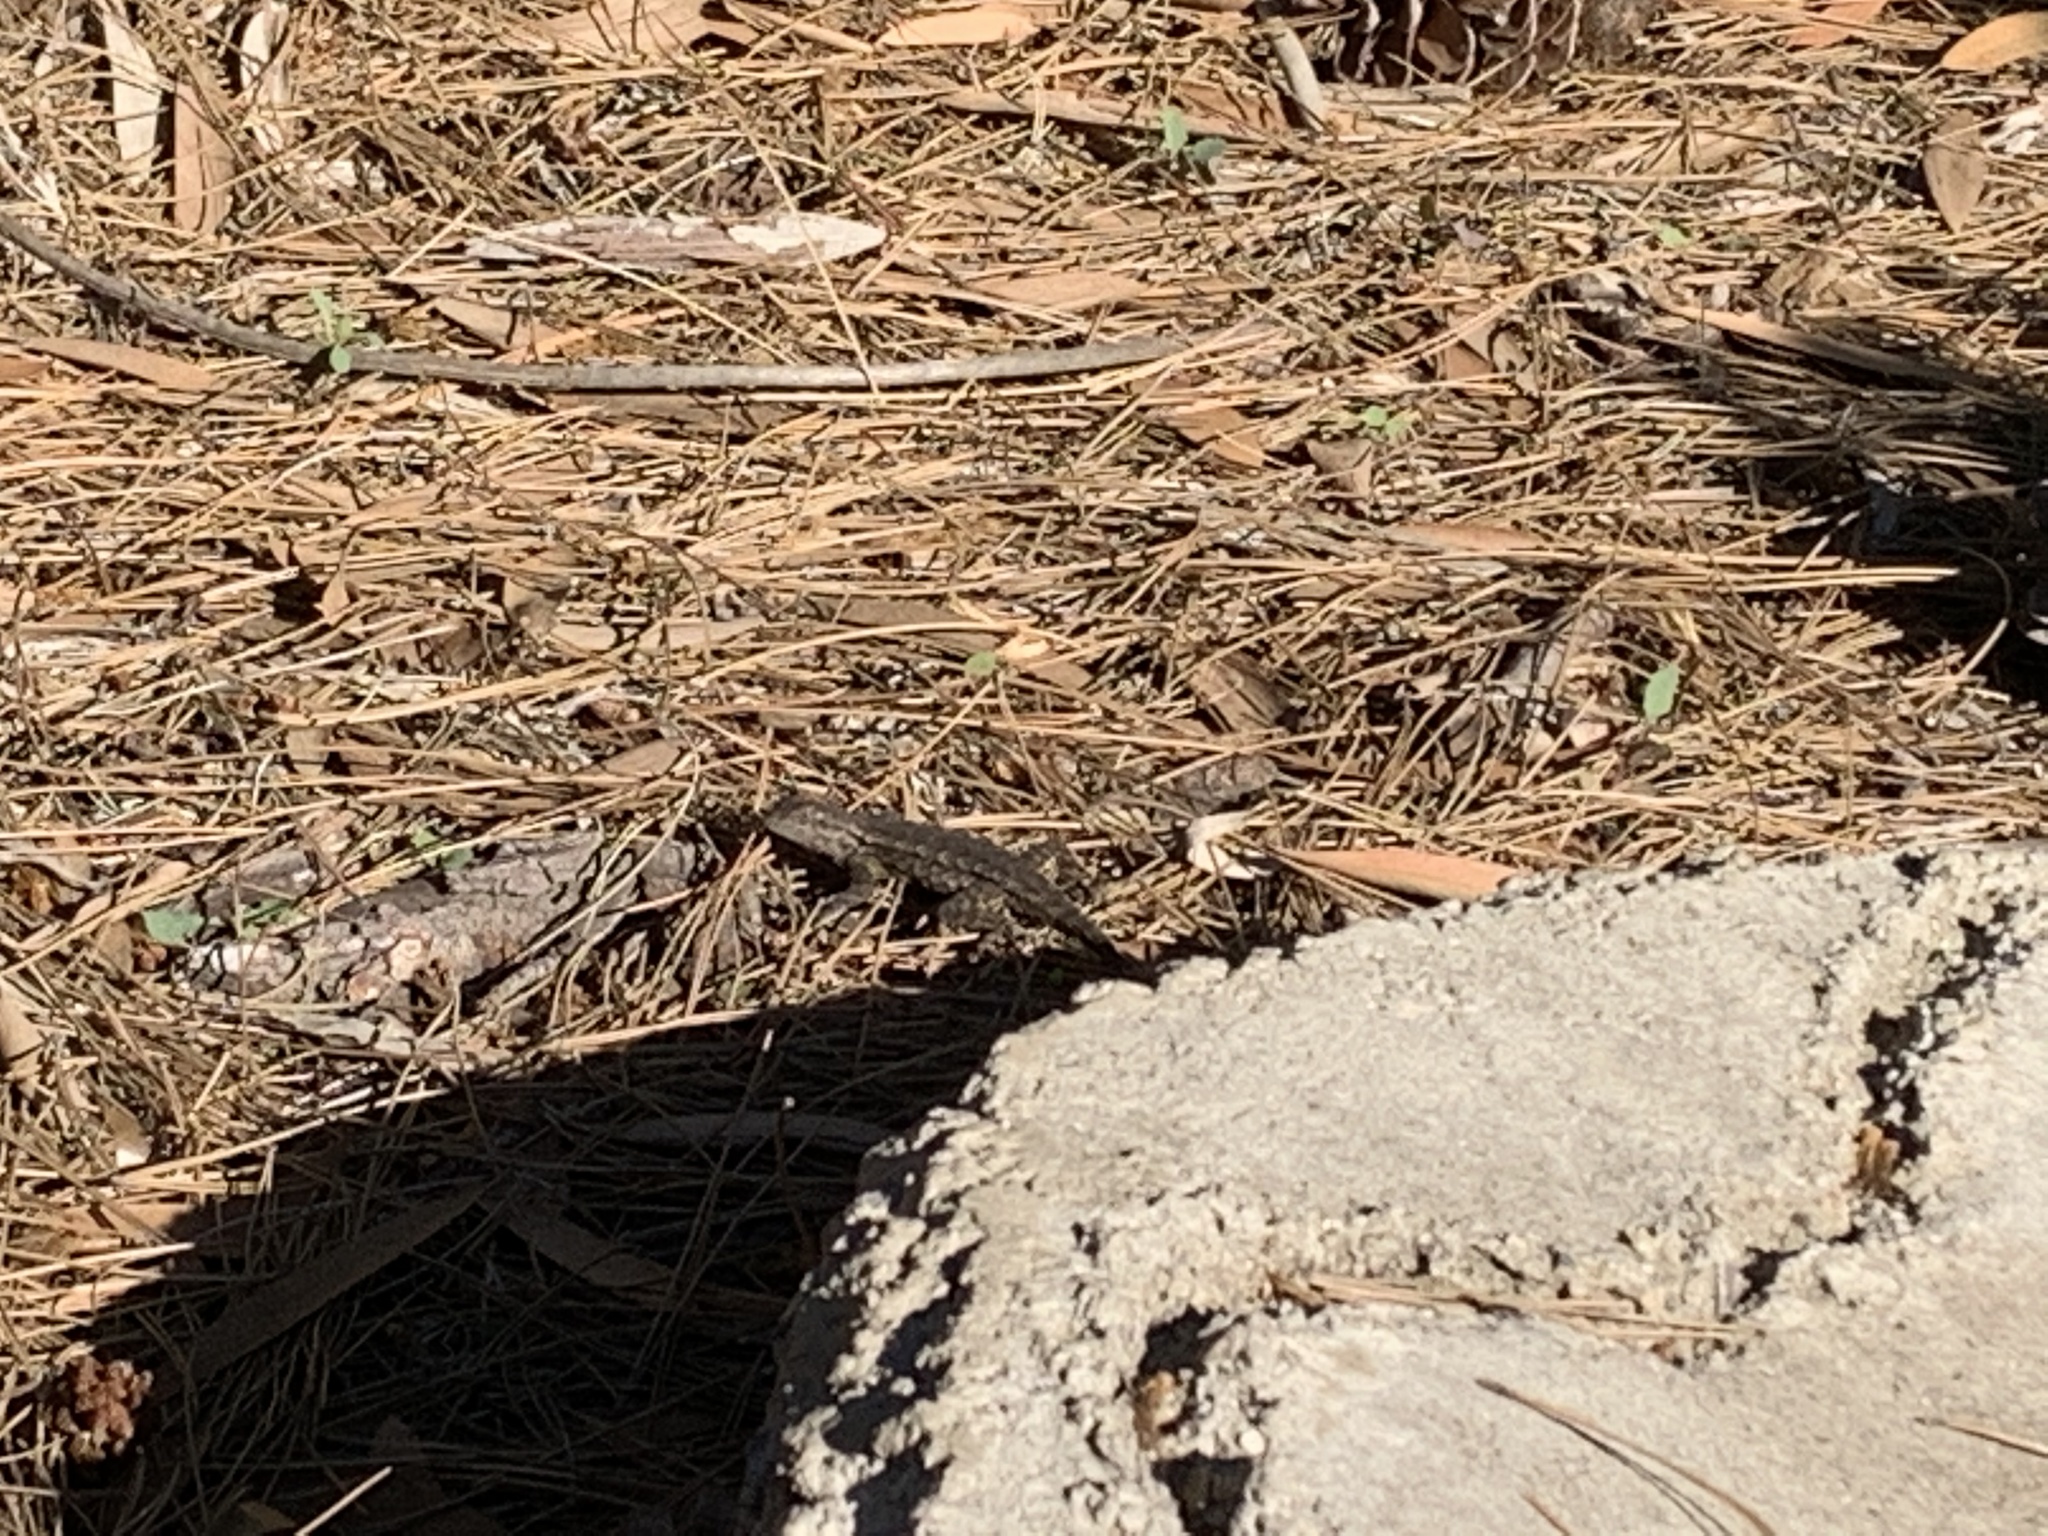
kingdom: Animalia
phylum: Chordata
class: Squamata
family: Phrynosomatidae
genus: Sceloporus
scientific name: Sceloporus occidentalis
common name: Western fence lizard
